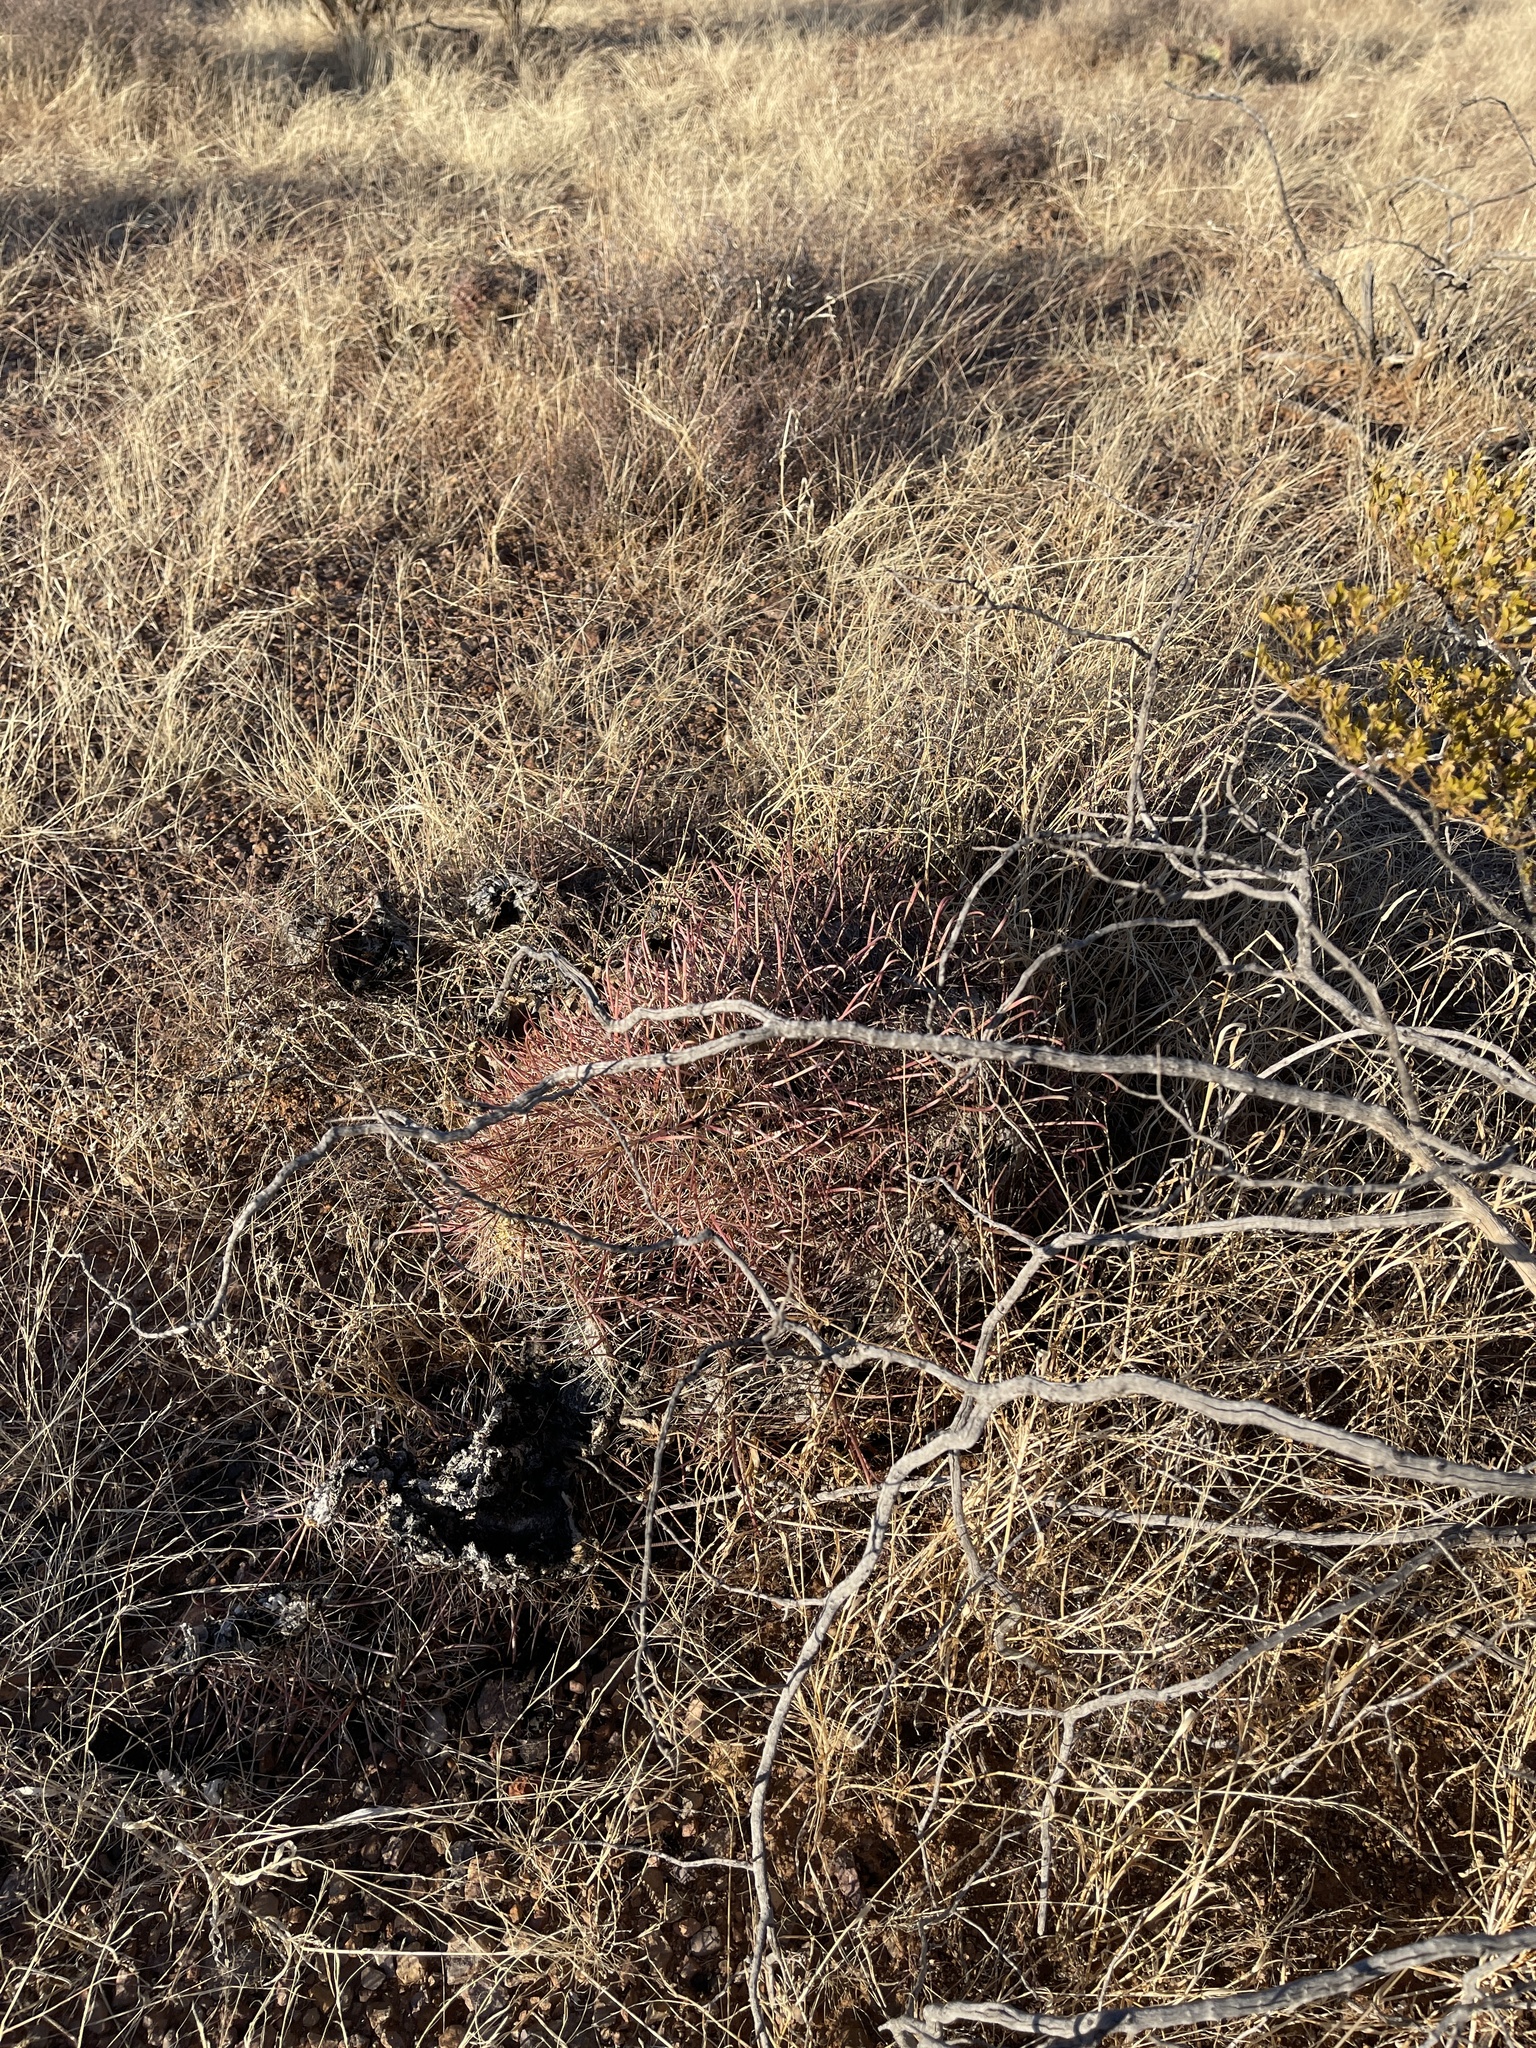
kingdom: Plantae
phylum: Tracheophyta
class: Magnoliopsida
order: Caryophyllales
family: Cactaceae
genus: Ferocactus
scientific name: Ferocactus wislizeni
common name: Candy barrel cactus
